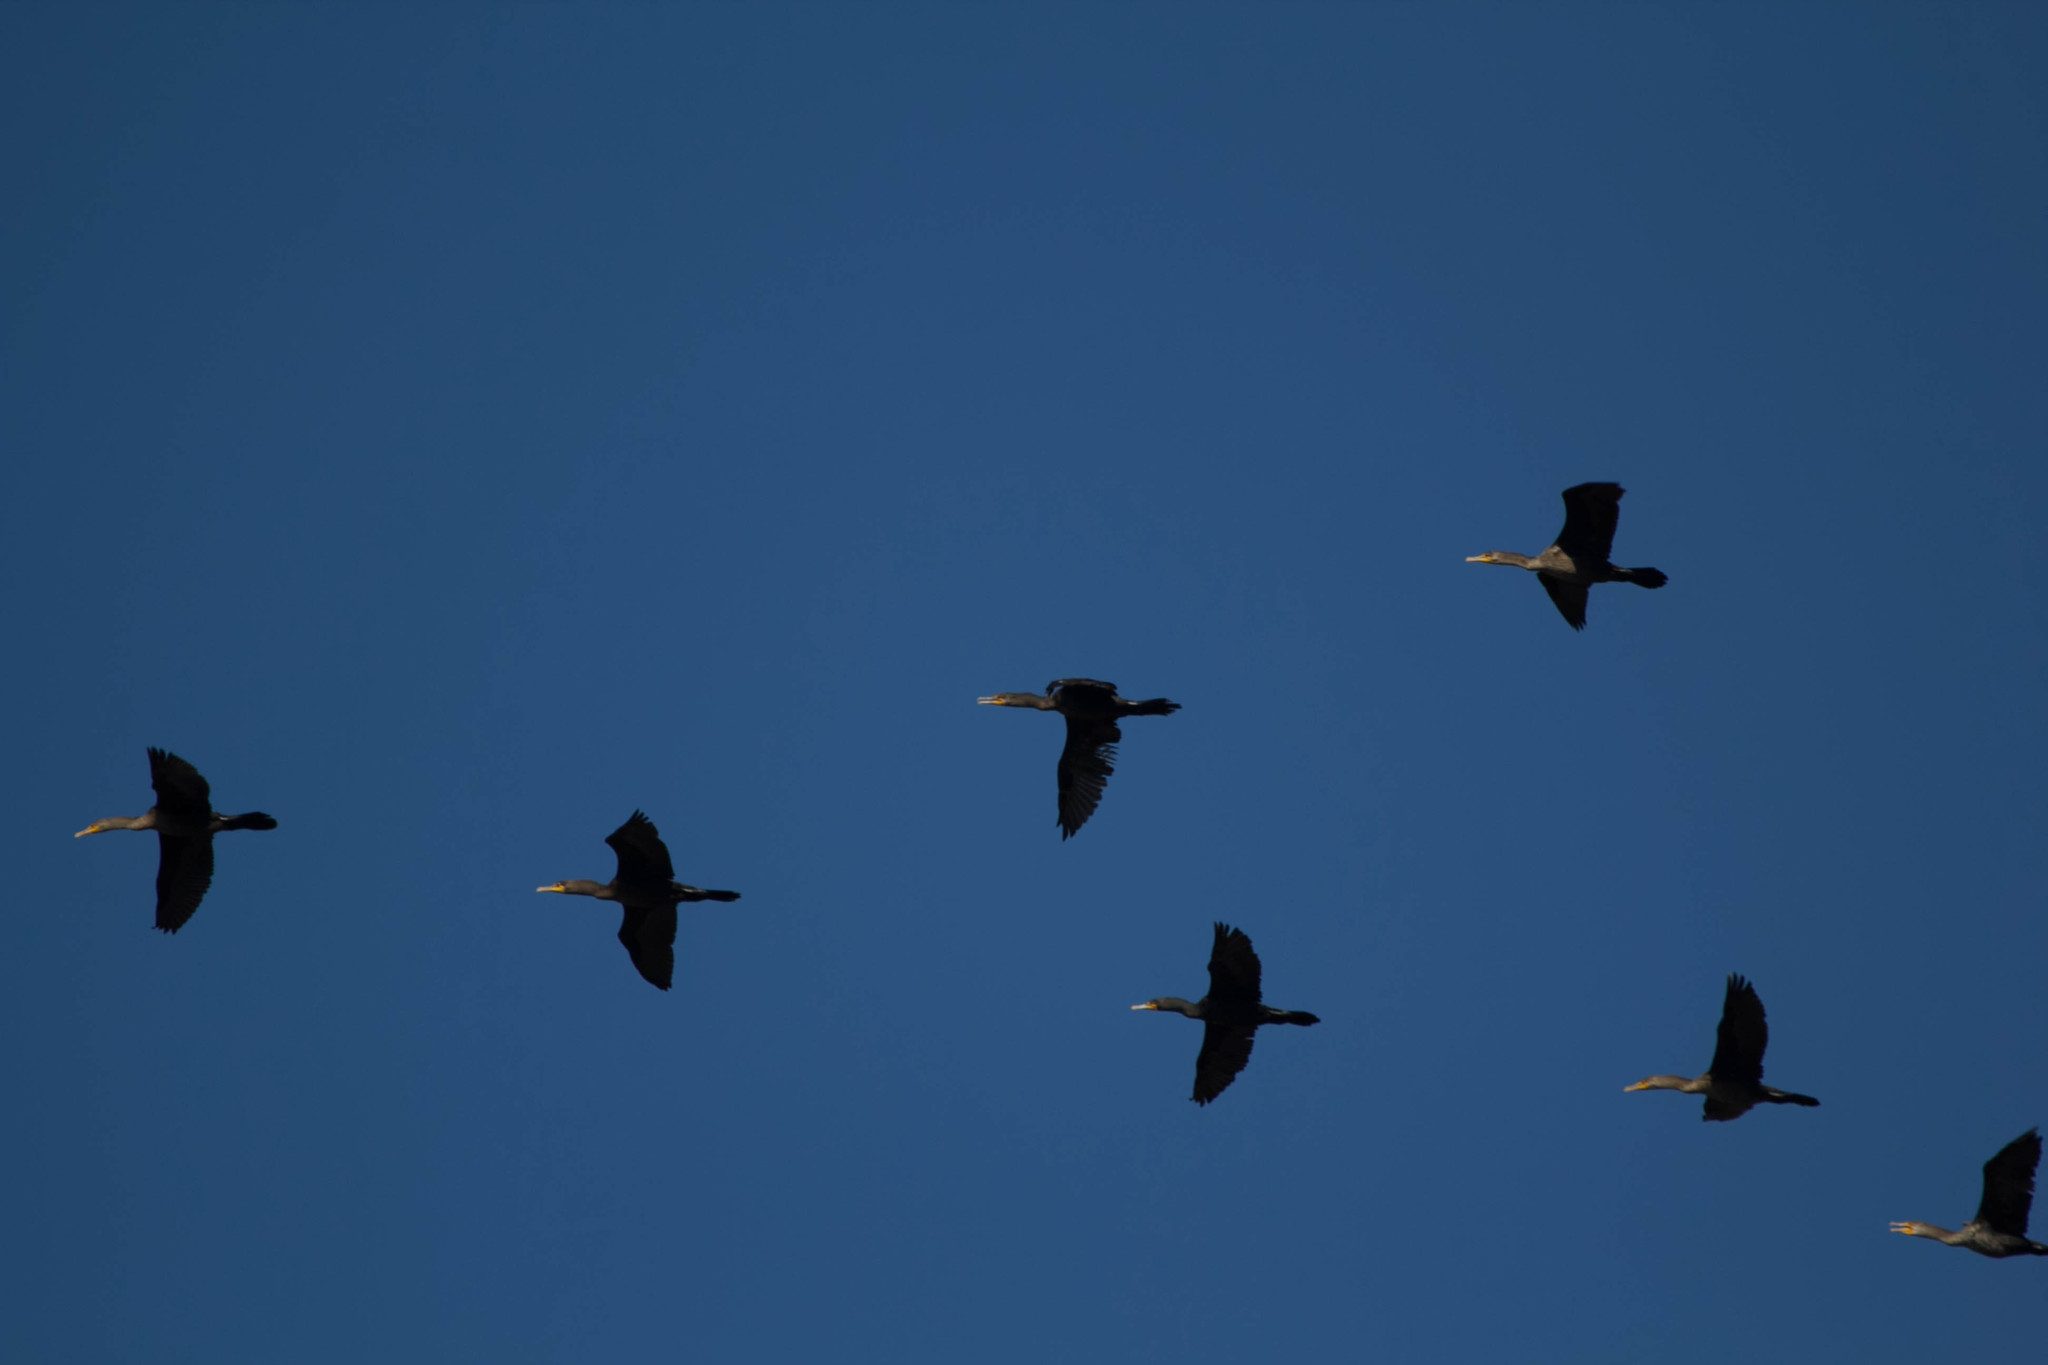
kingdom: Animalia
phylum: Chordata
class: Aves
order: Suliformes
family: Phalacrocoracidae
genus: Phalacrocorax
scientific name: Phalacrocorax auritus
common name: Double-crested cormorant
